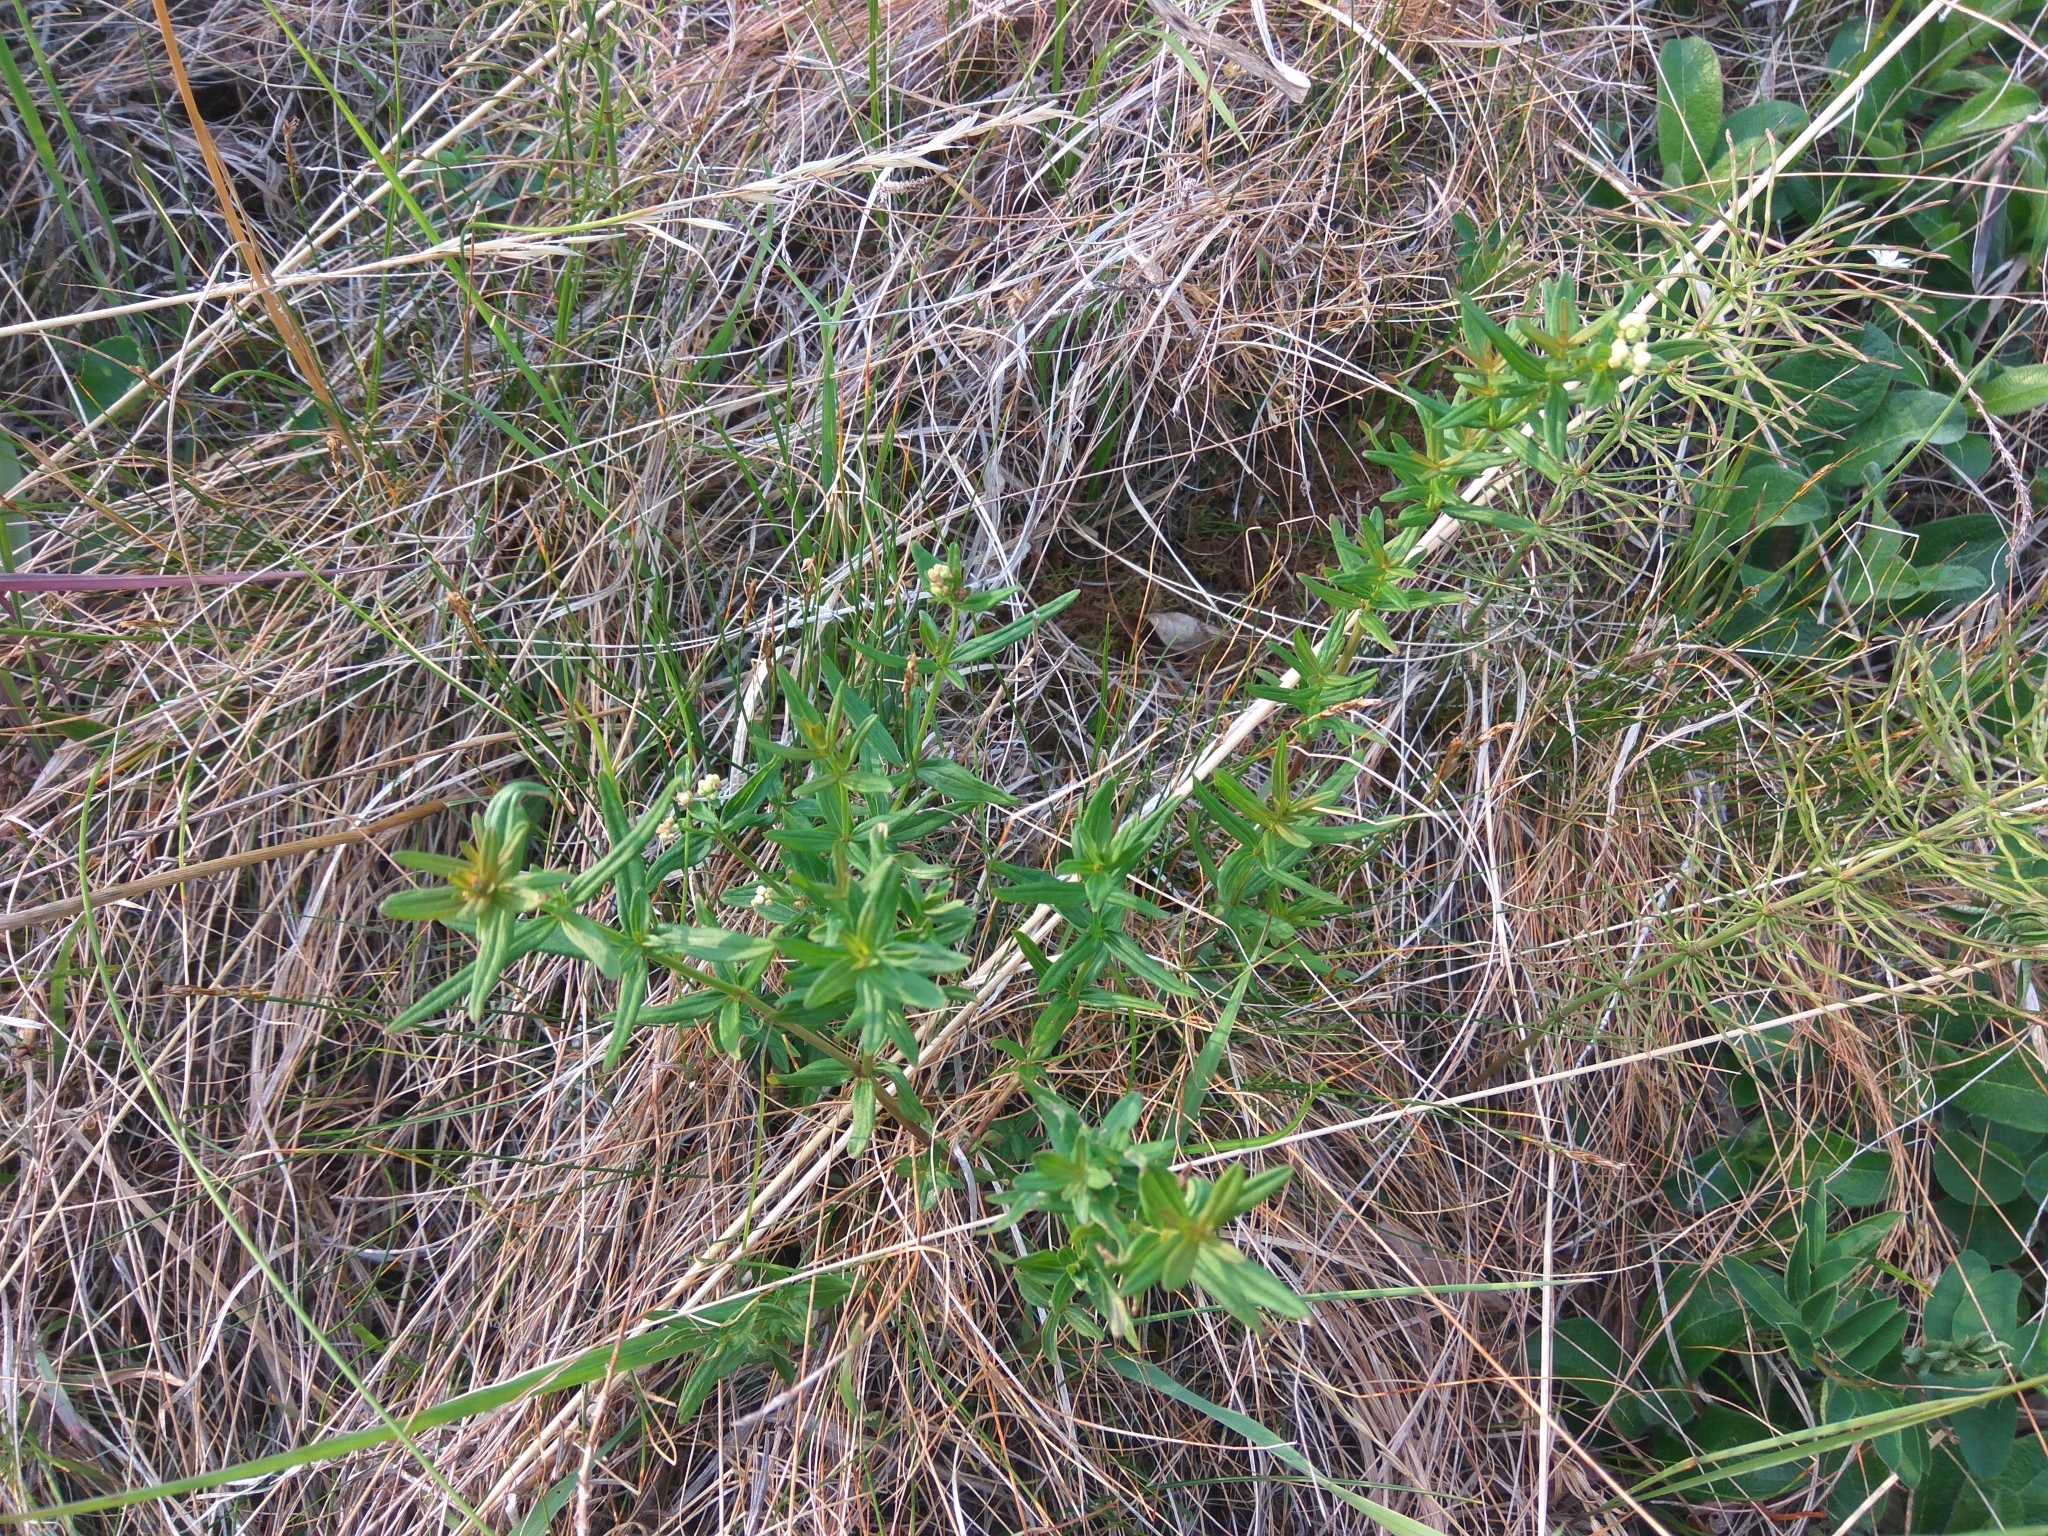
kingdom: Plantae
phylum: Tracheophyta
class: Magnoliopsida
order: Gentianales
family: Rubiaceae
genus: Galium
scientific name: Galium boreale
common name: Northern bedstraw
